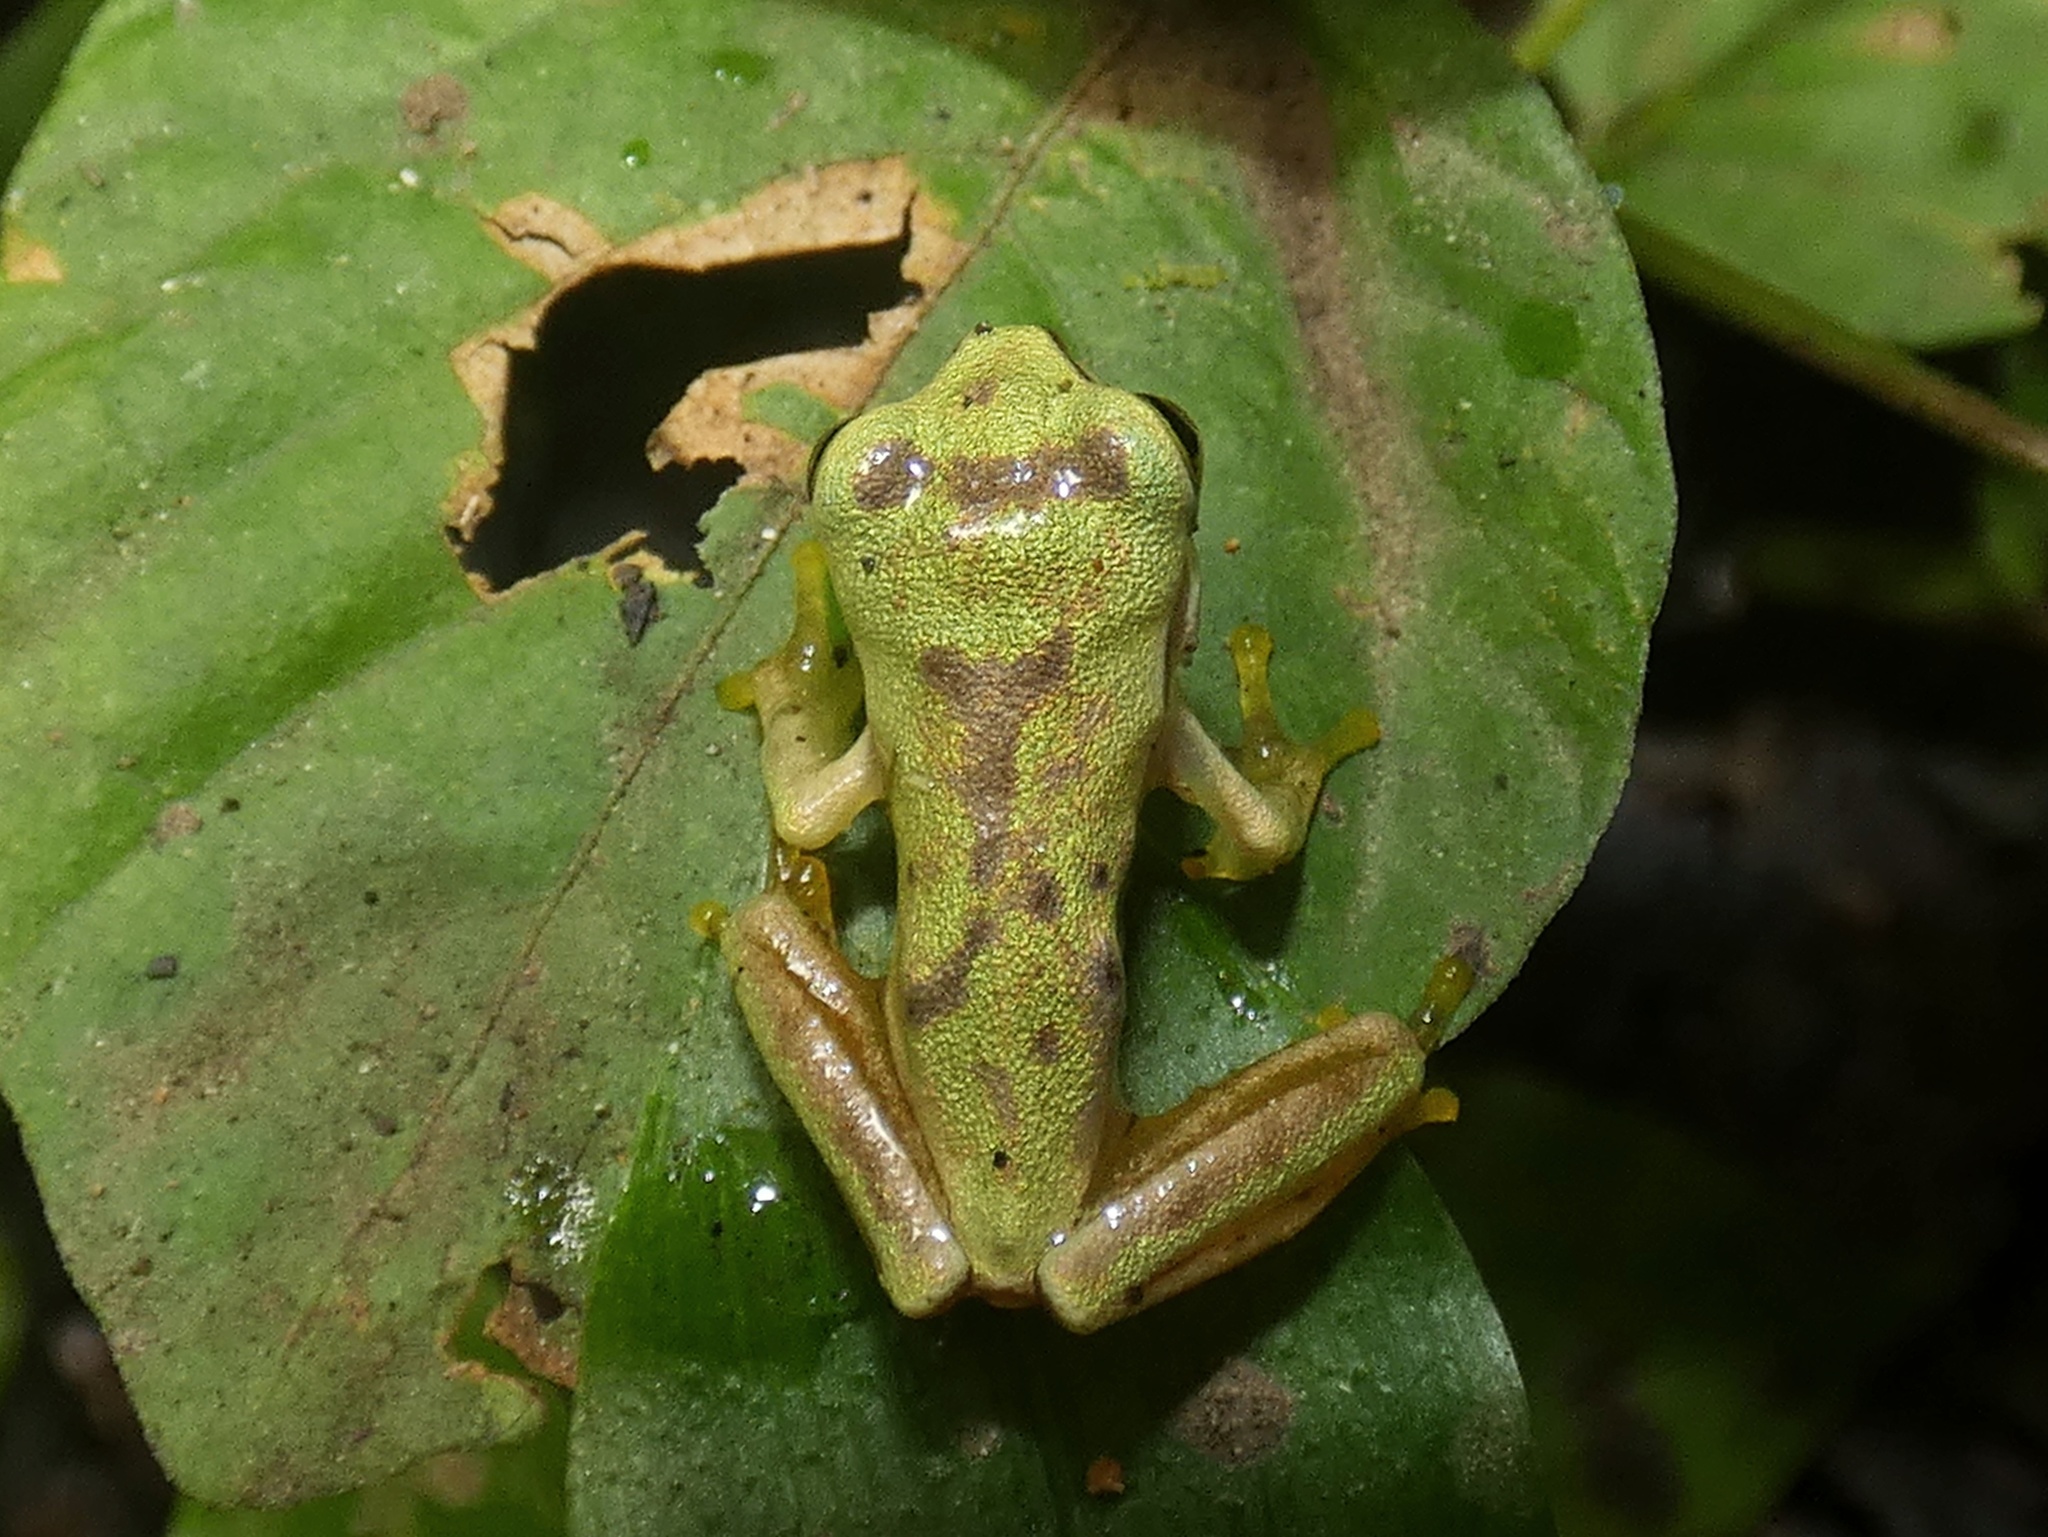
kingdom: Animalia
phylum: Chordata
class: Amphibia
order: Anura
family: Hylidae
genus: Smilisca
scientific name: Smilisca phaeota
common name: Central american smilisca
